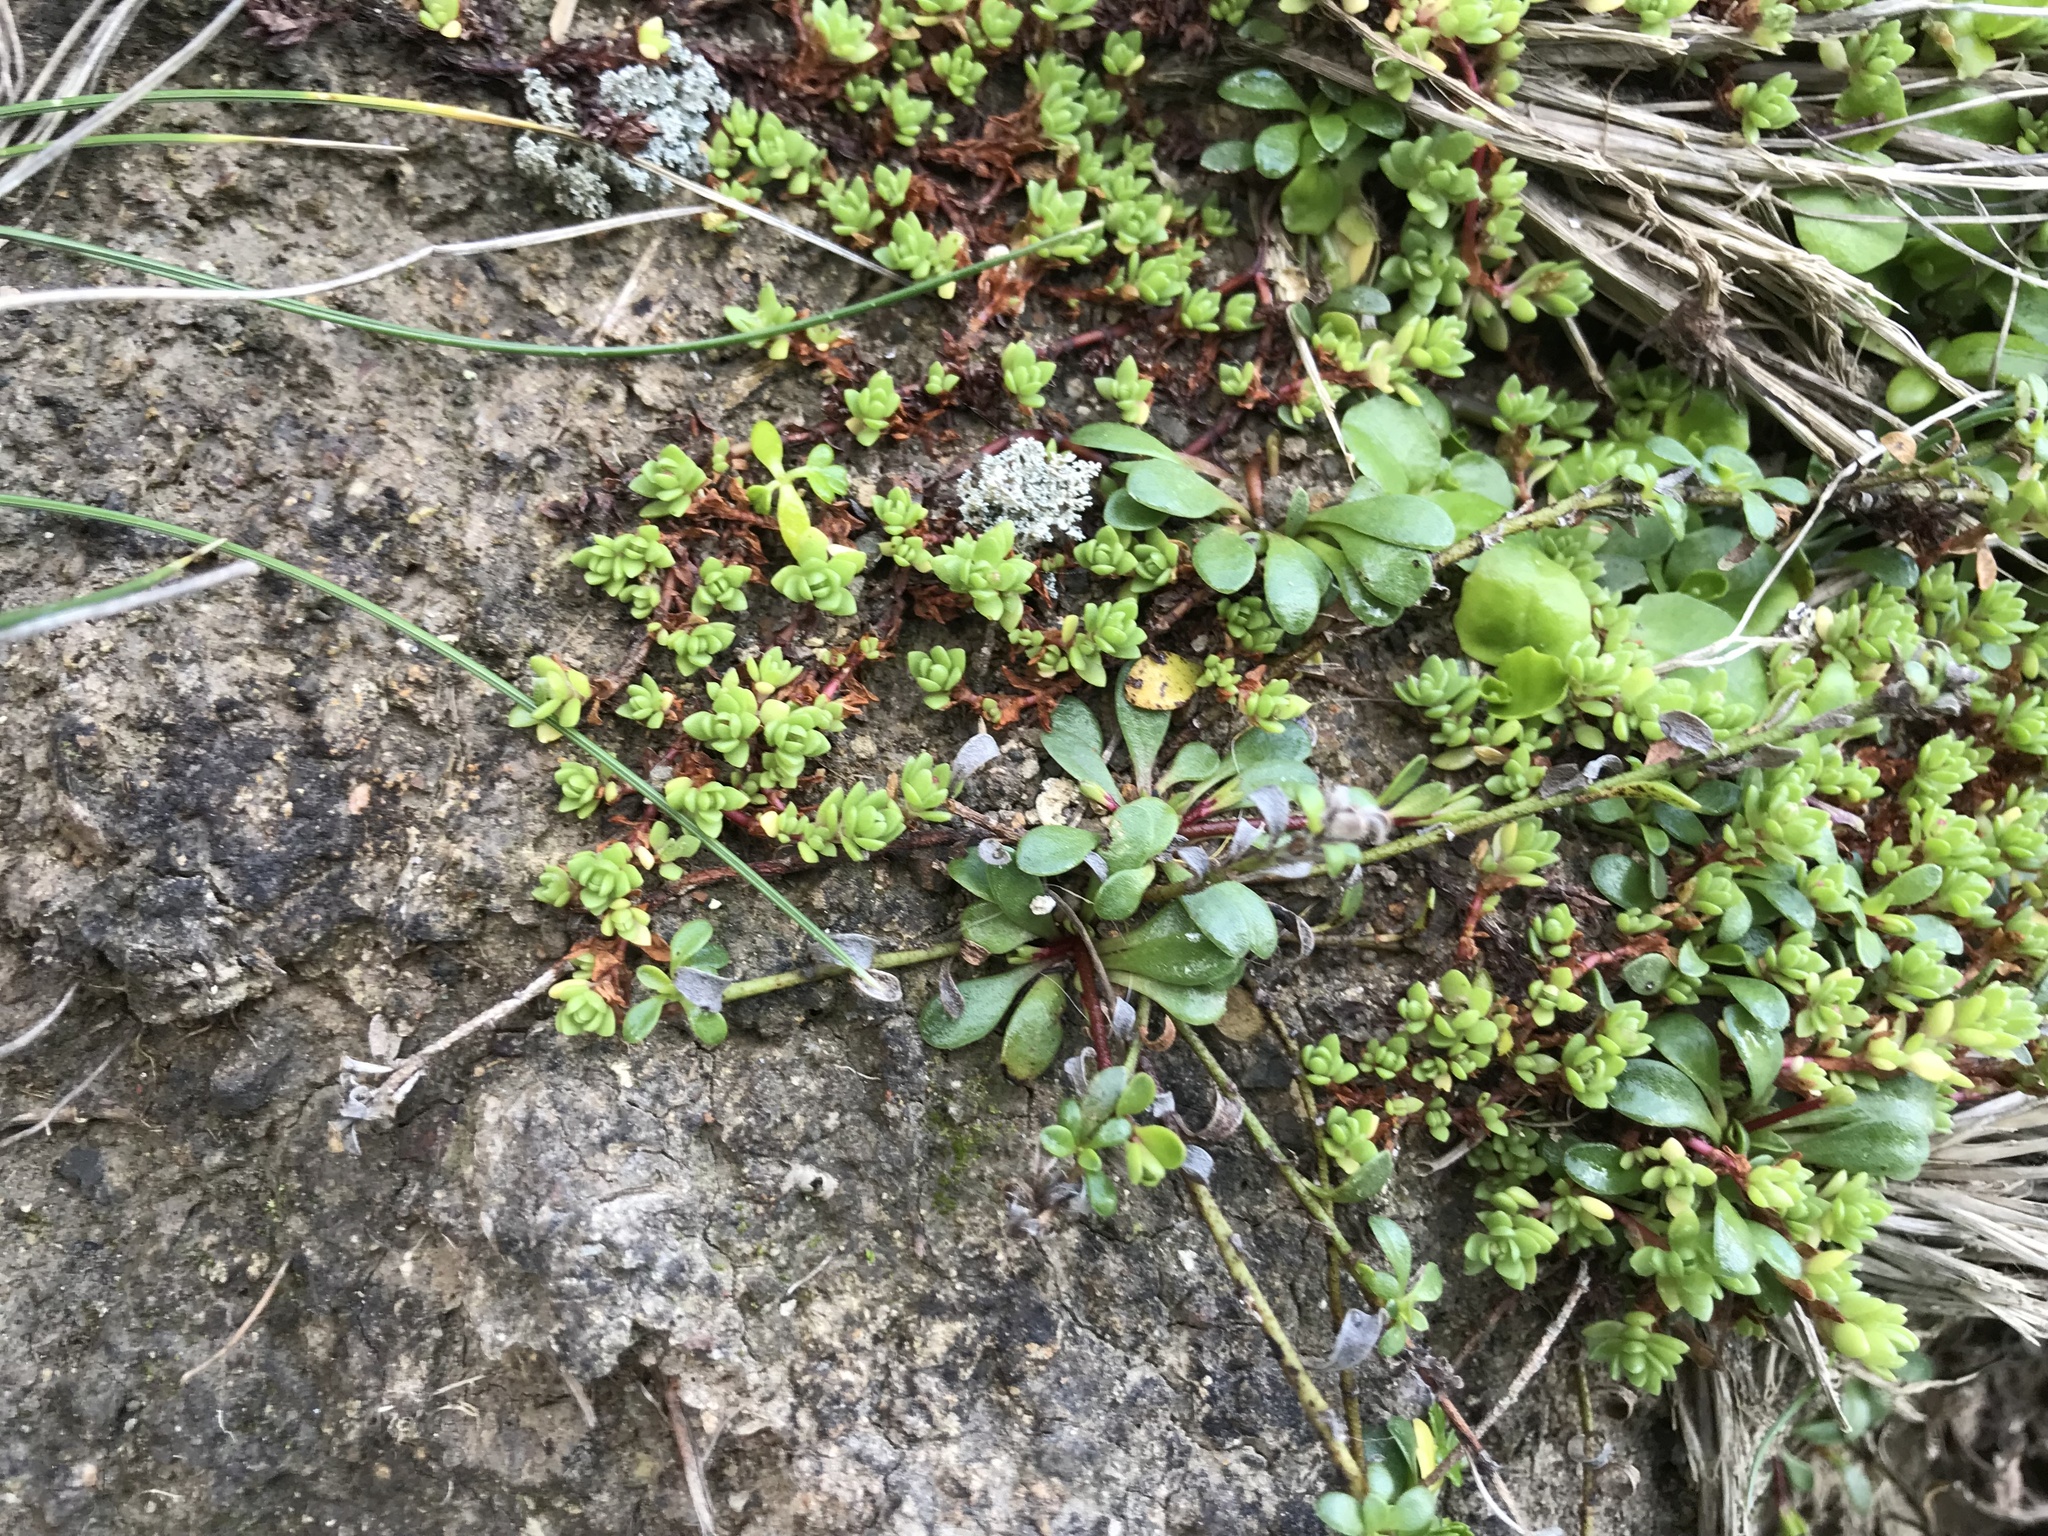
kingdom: Plantae
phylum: Tracheophyta
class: Magnoliopsida
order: Ericales
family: Primulaceae
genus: Samolus
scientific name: Samolus repens
